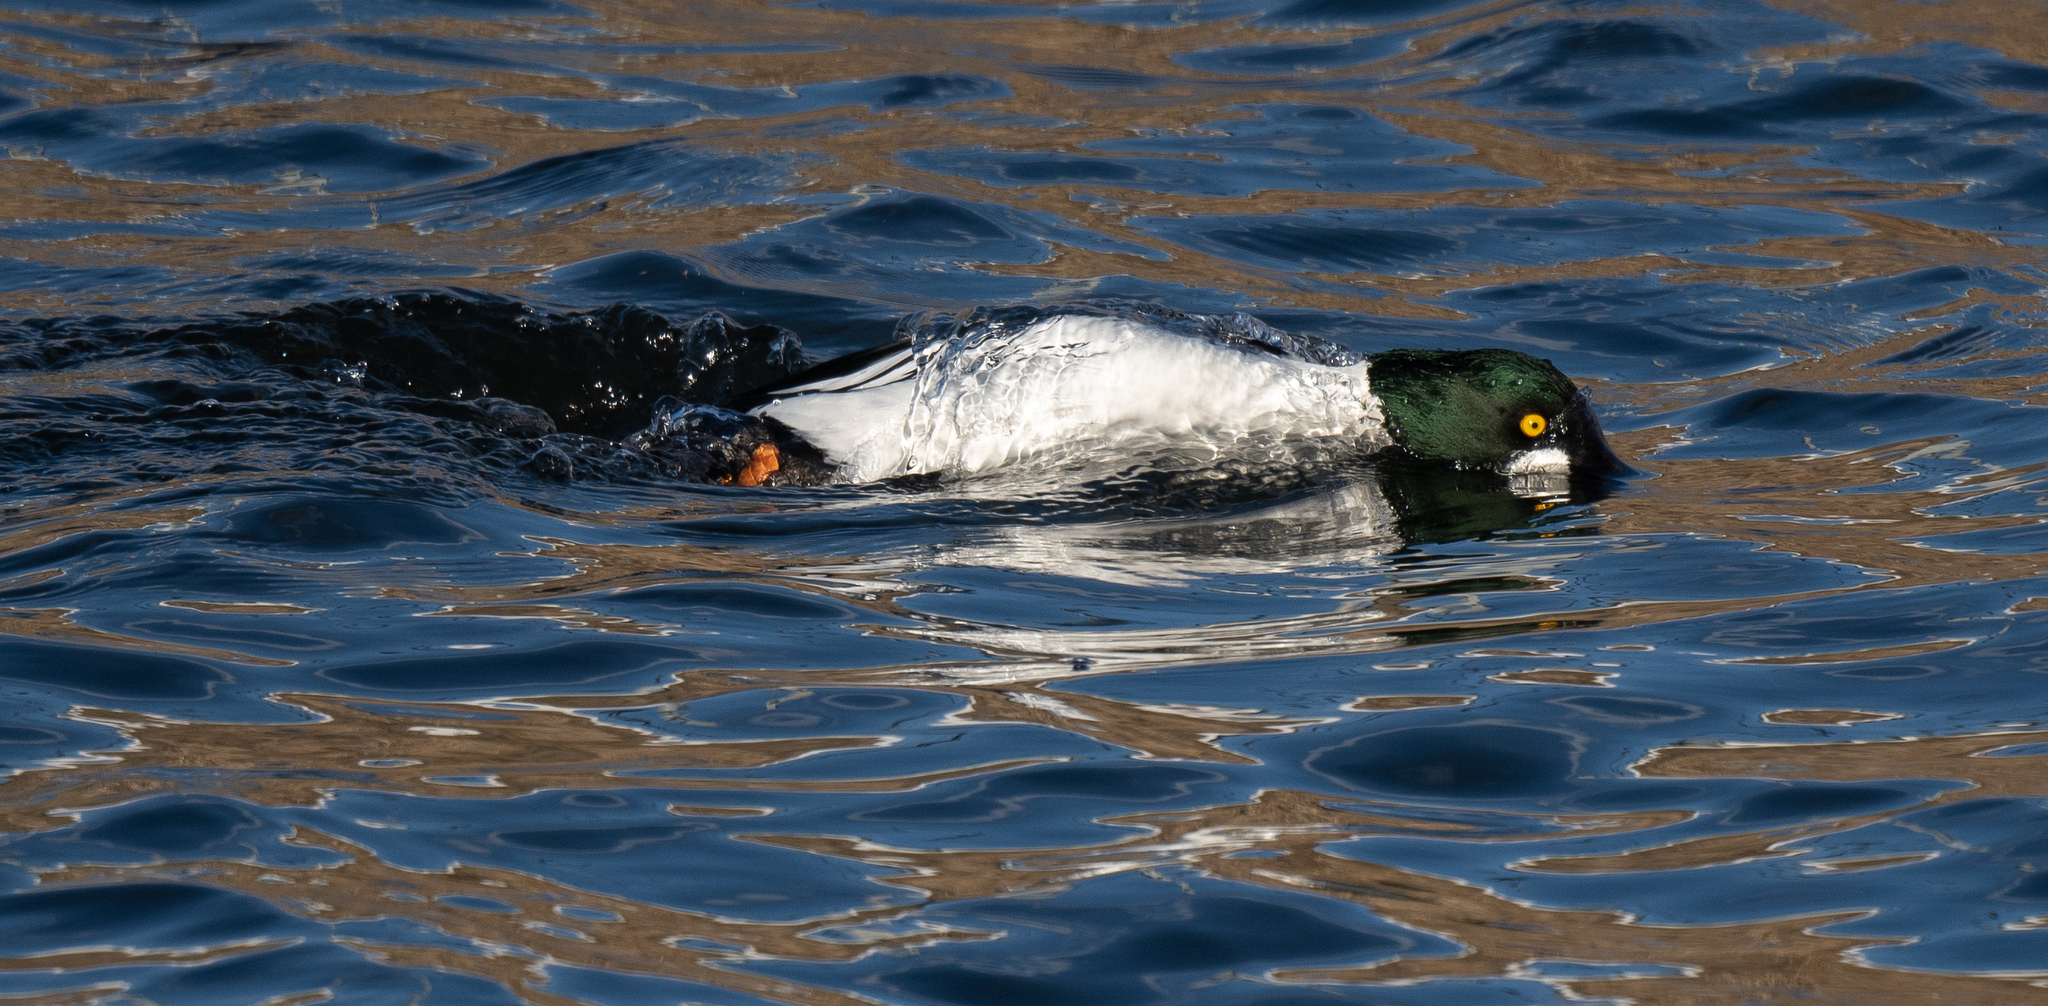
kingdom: Animalia
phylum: Chordata
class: Aves
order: Anseriformes
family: Anatidae
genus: Bucephala
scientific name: Bucephala clangula
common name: Common goldeneye
